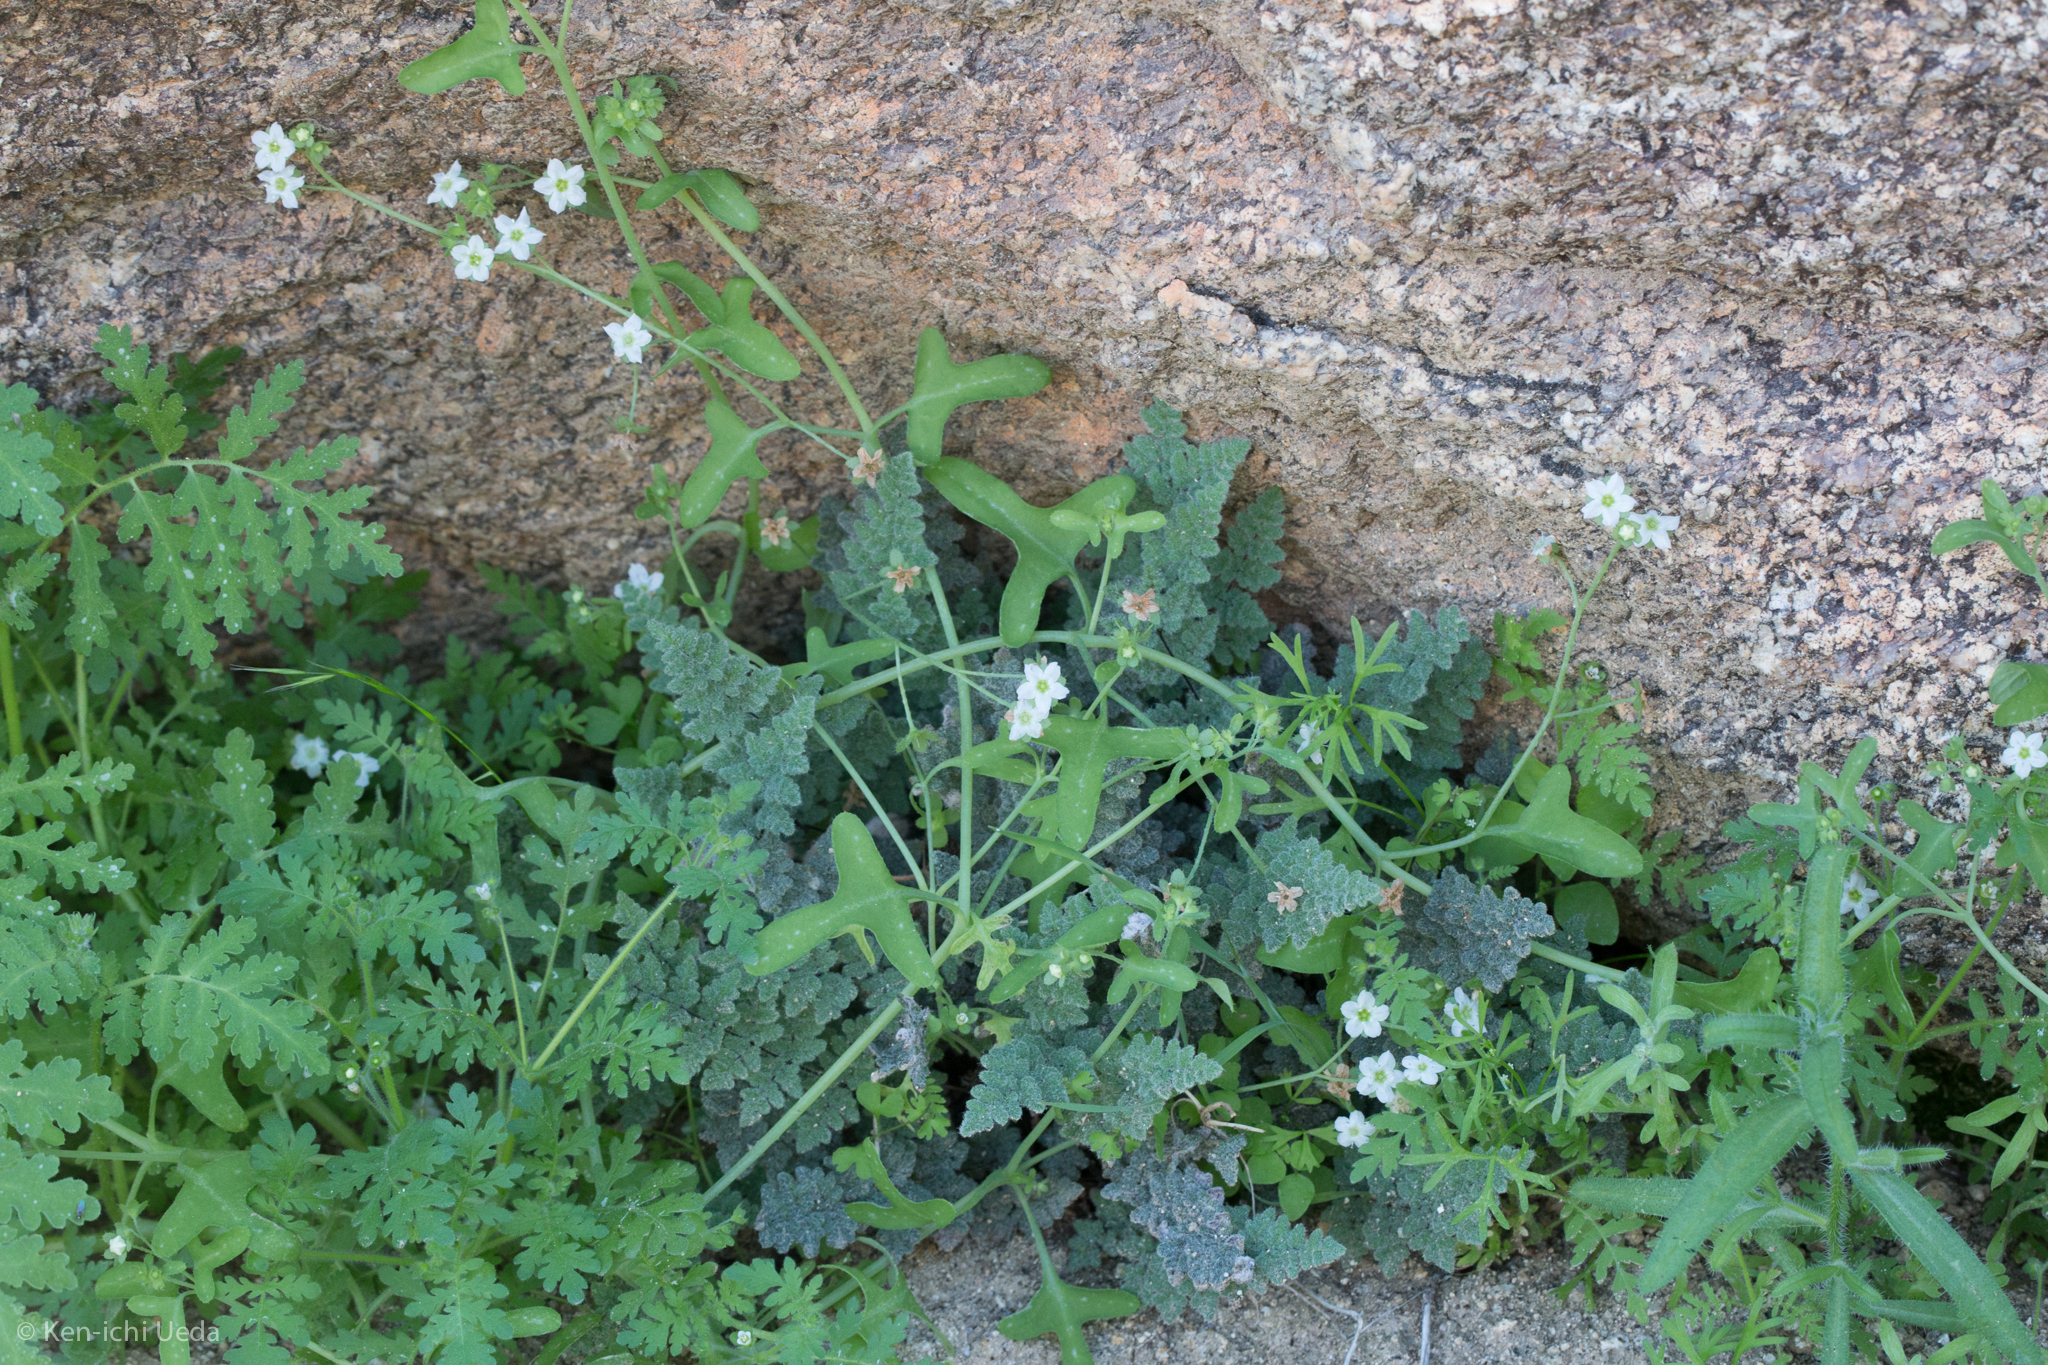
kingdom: Plantae
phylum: Tracheophyta
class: Magnoliopsida
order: Boraginales
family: Hydrophyllaceae
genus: Pholistoma
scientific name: Pholistoma membranaceum
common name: White fiesta-flower
